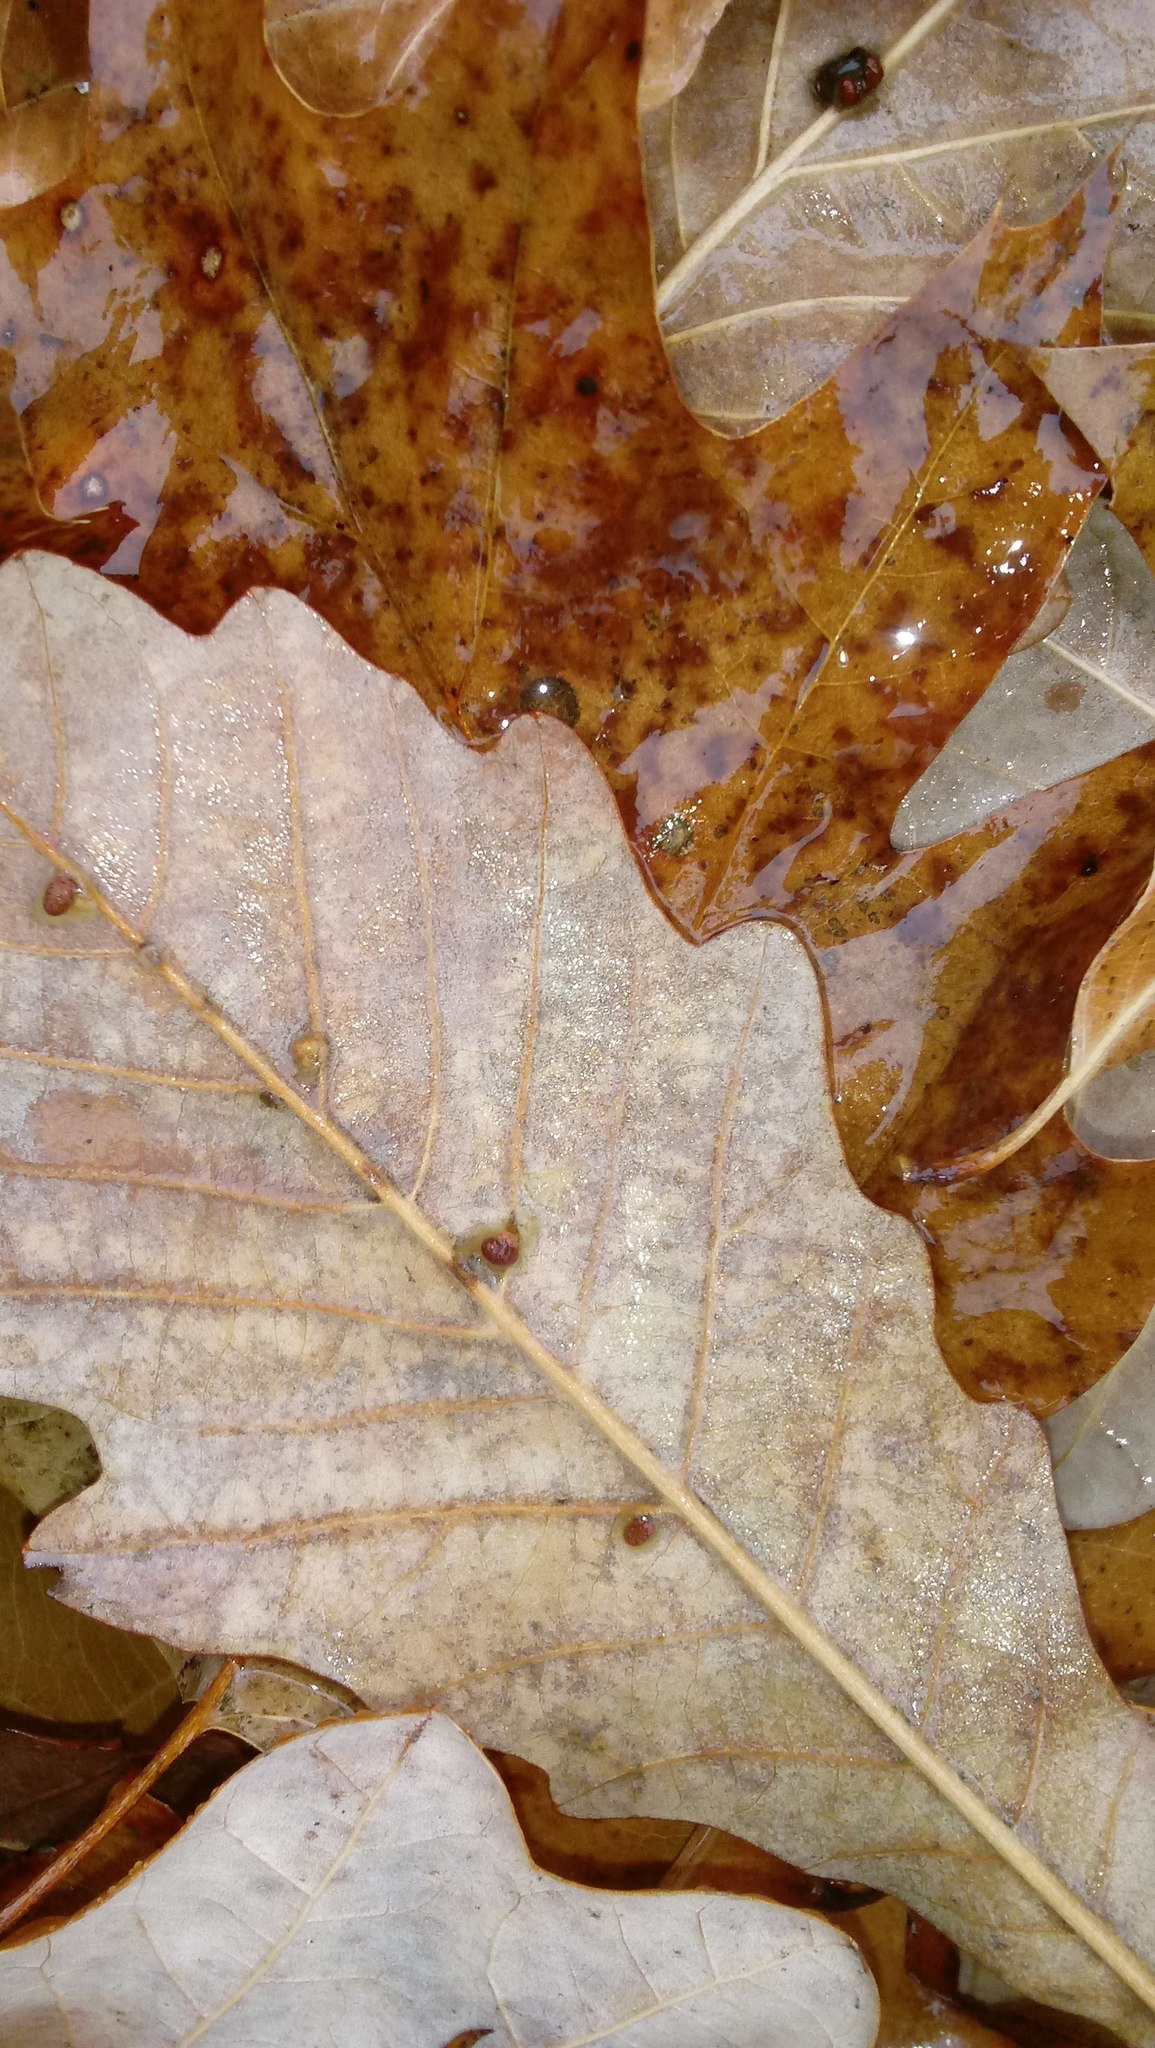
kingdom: Animalia
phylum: Arthropoda
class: Insecta
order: Hymenoptera
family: Cynipidae
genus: Andricus
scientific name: Andricus Druon ignotum
